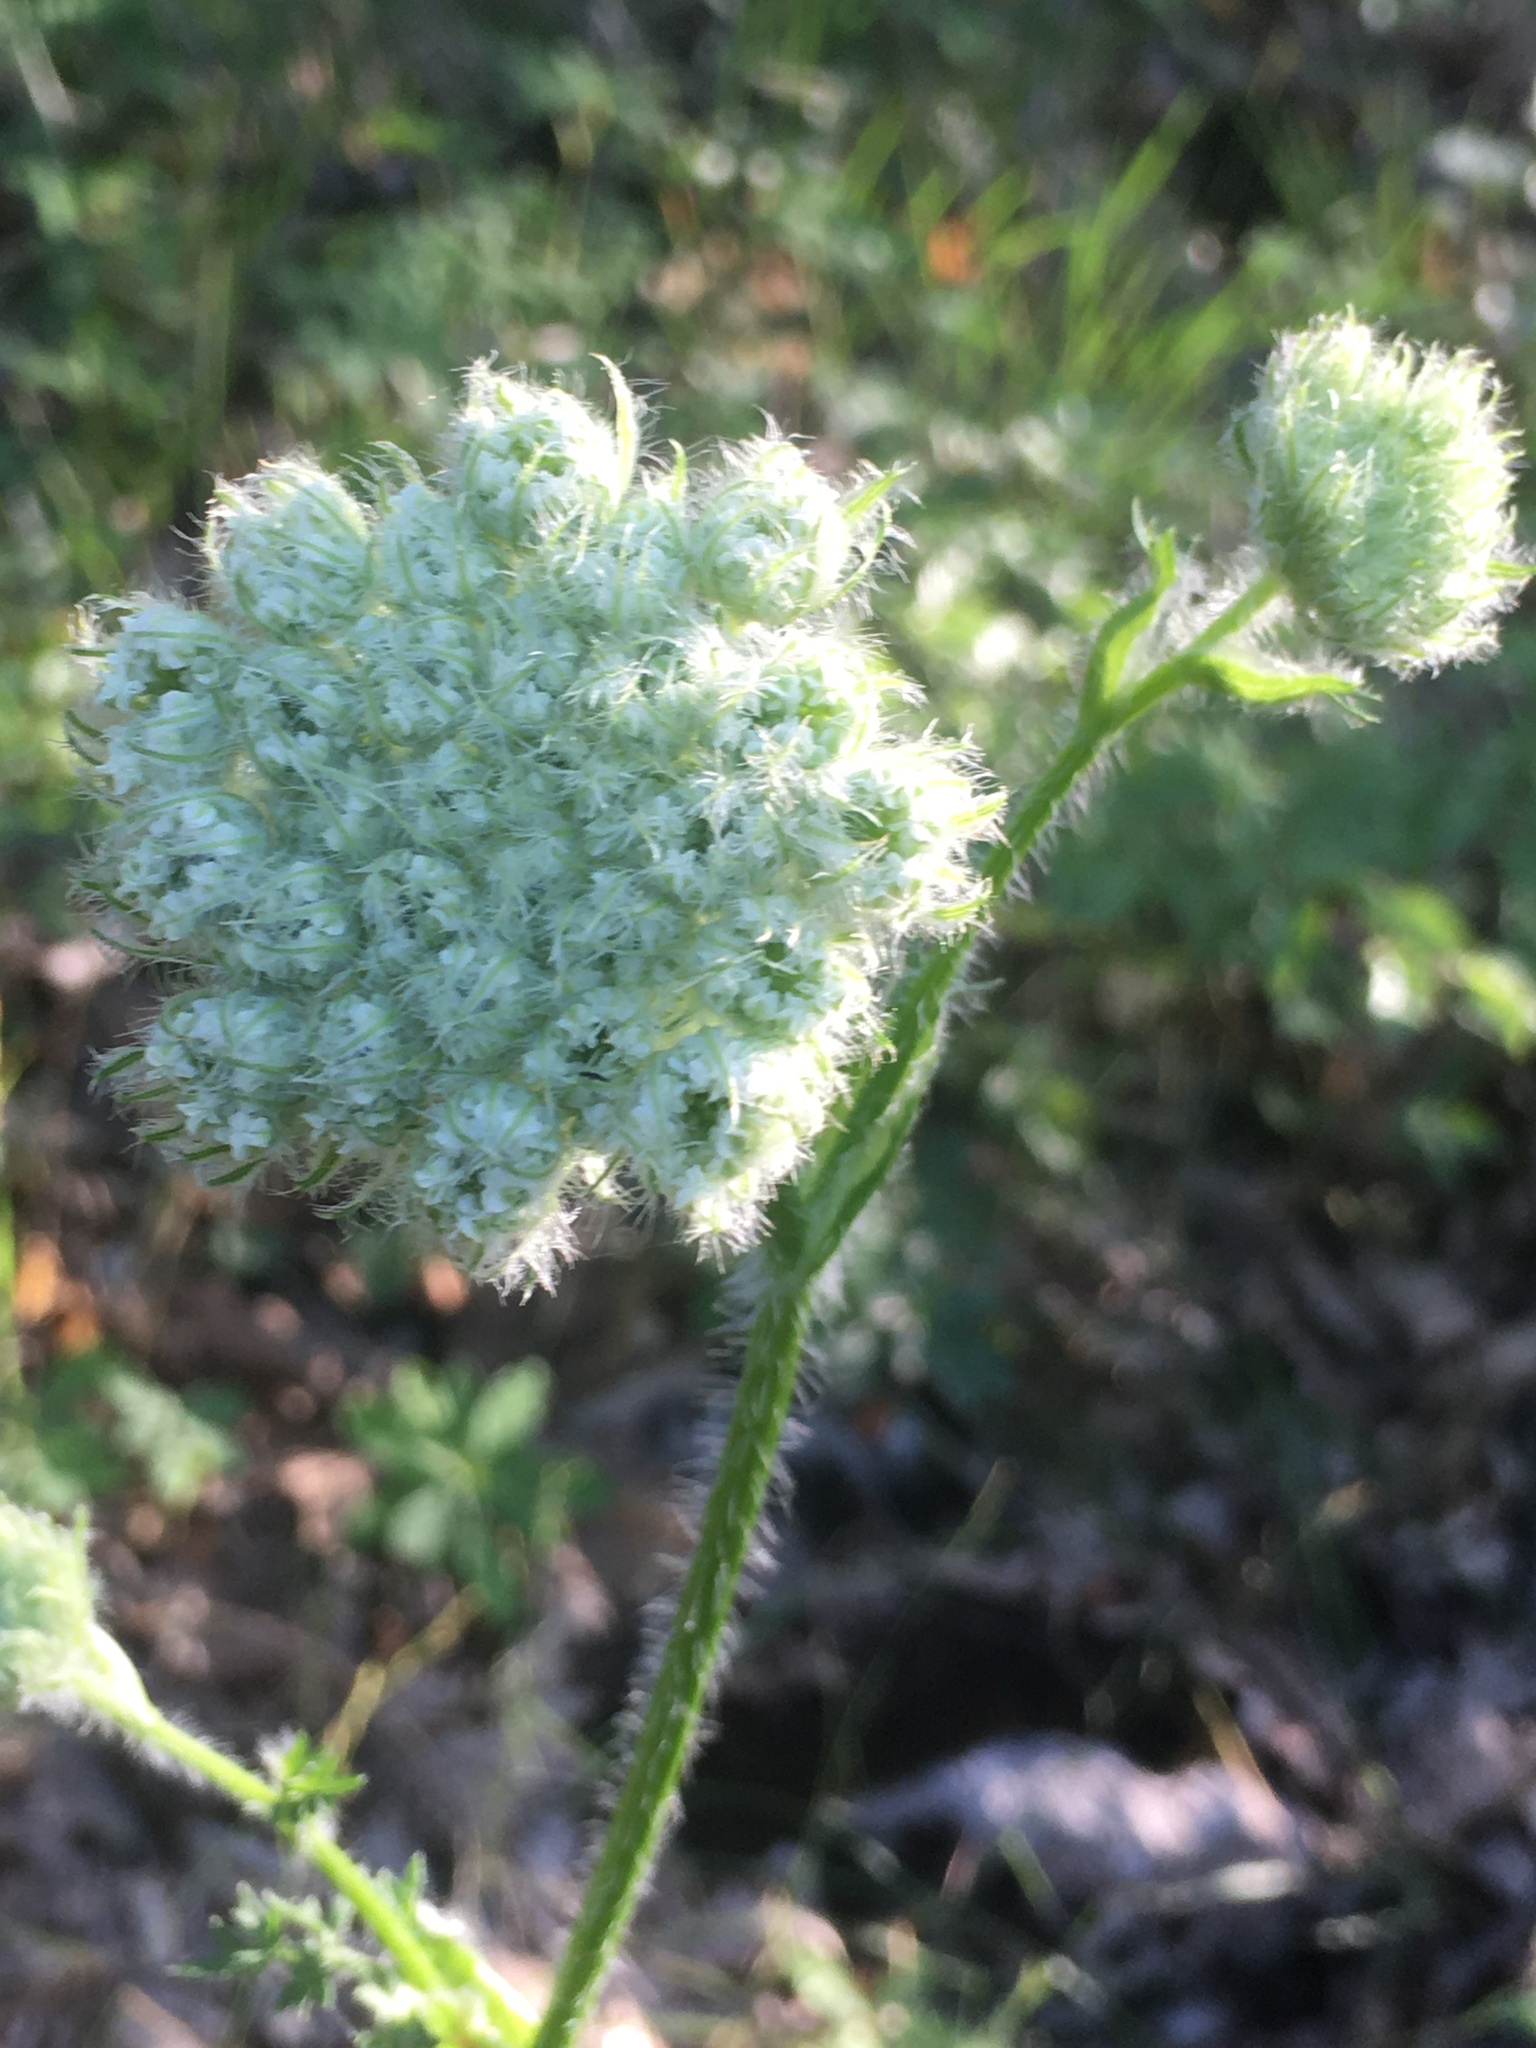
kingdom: Plantae
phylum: Tracheophyta
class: Magnoliopsida
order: Apiales
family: Apiaceae
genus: Silphiodaucus
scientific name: Silphiodaucus hispidus
